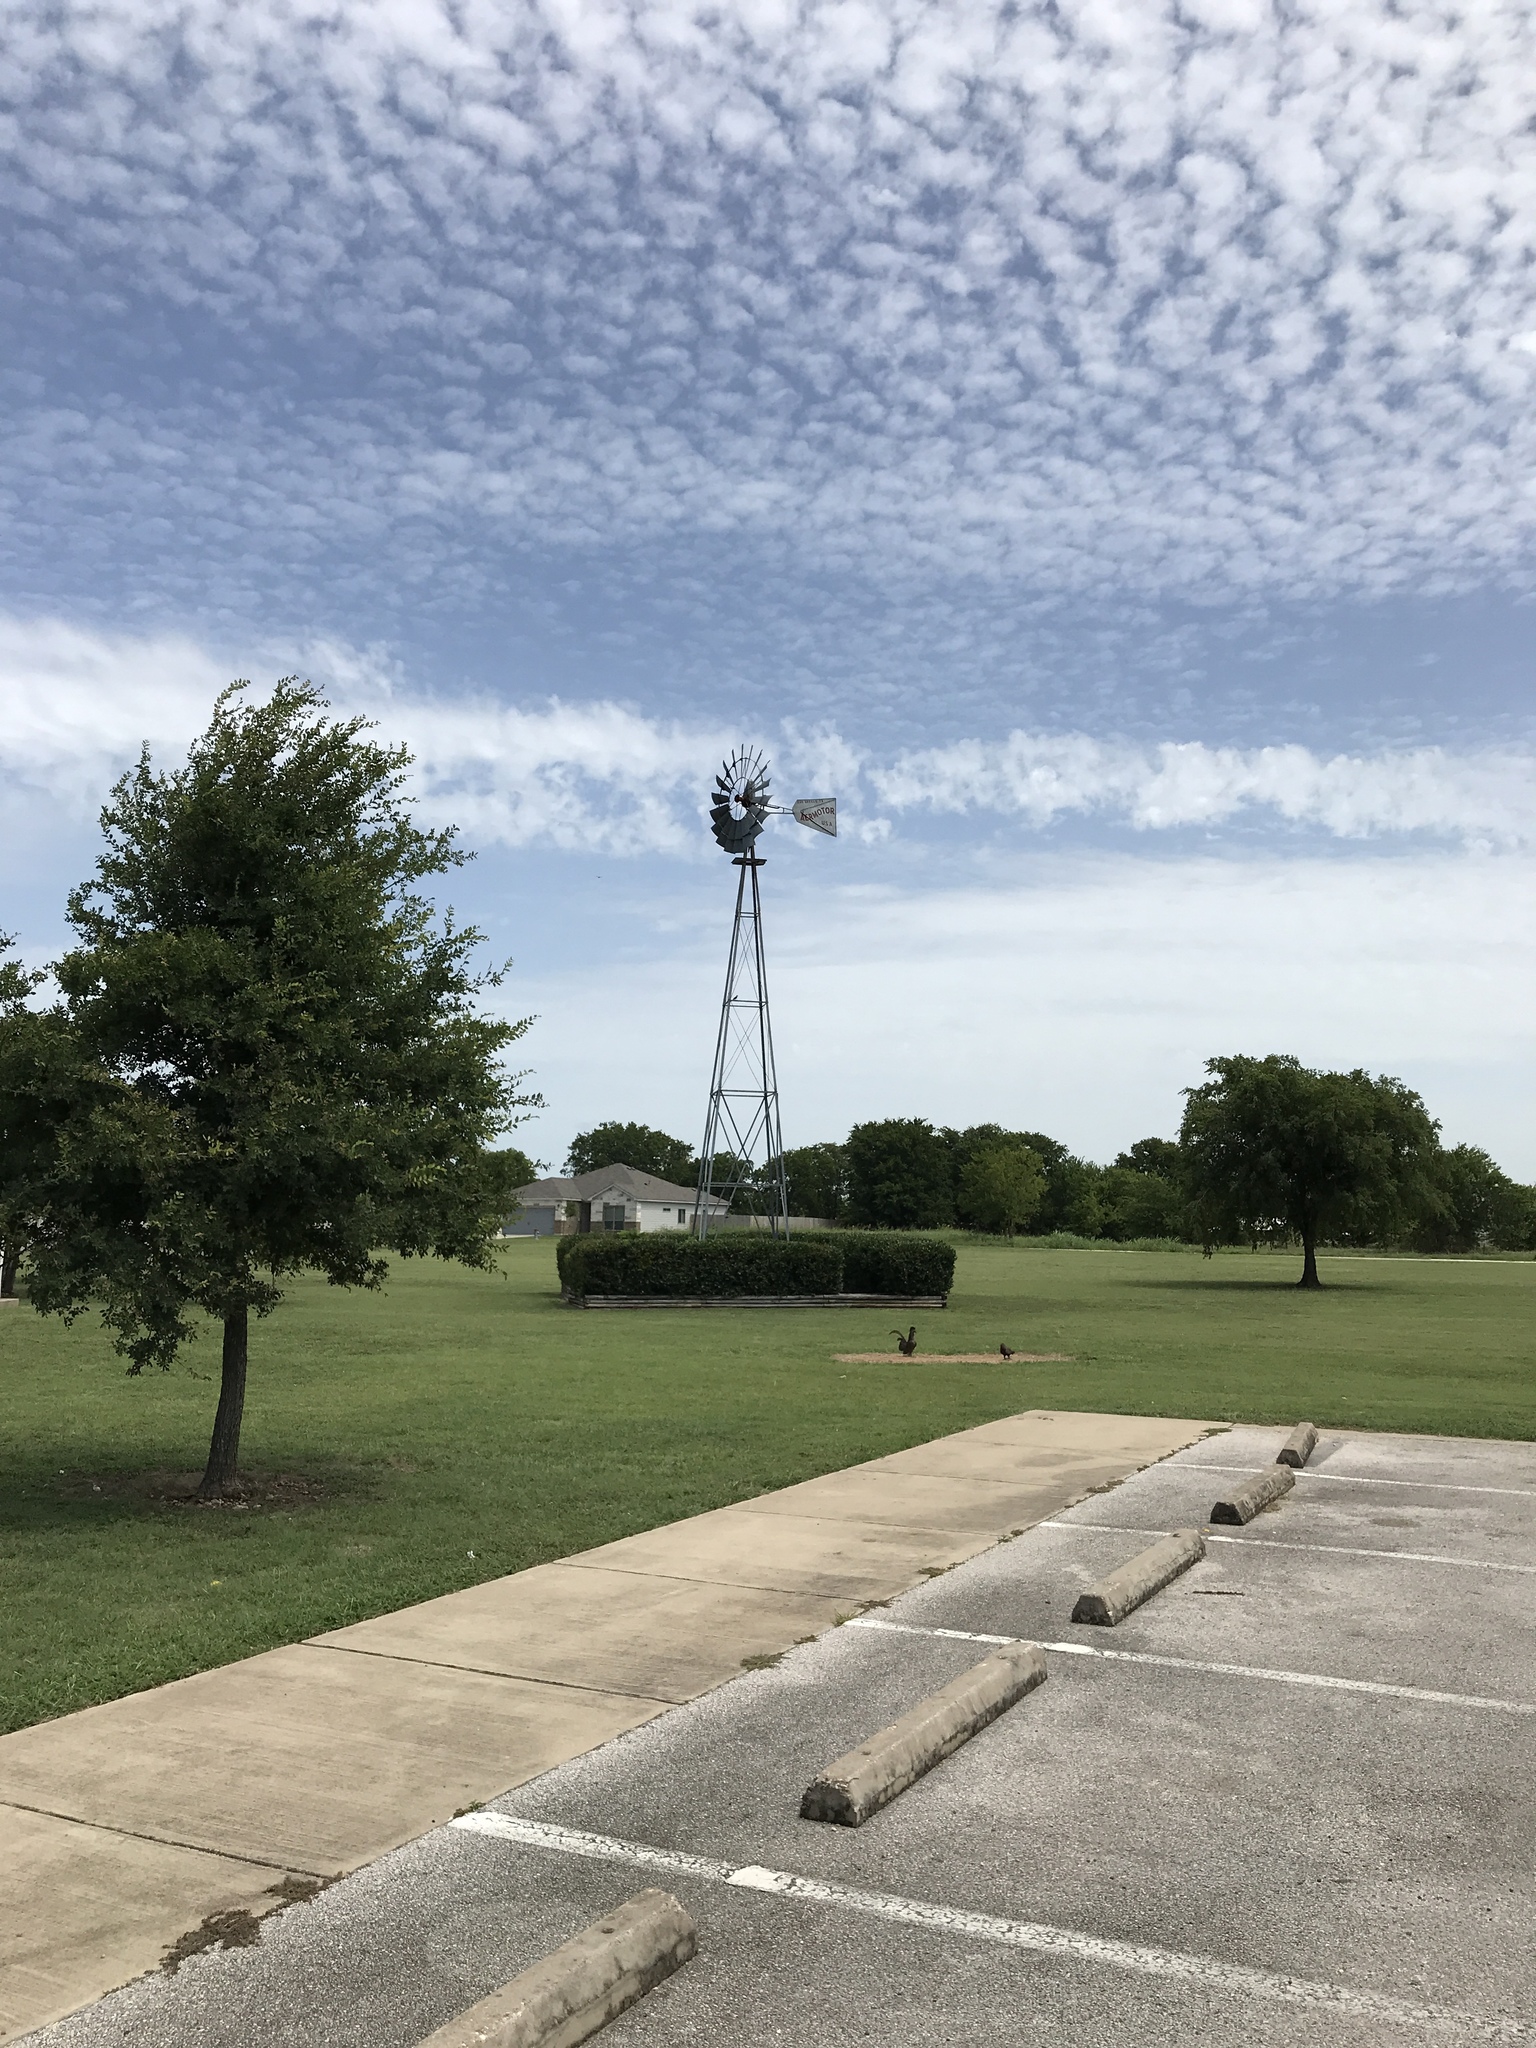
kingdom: Plantae
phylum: Tracheophyta
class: Magnoliopsida
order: Asterales
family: Asteraceae
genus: Lactuca
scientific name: Lactuca serriola
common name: Prickly lettuce
